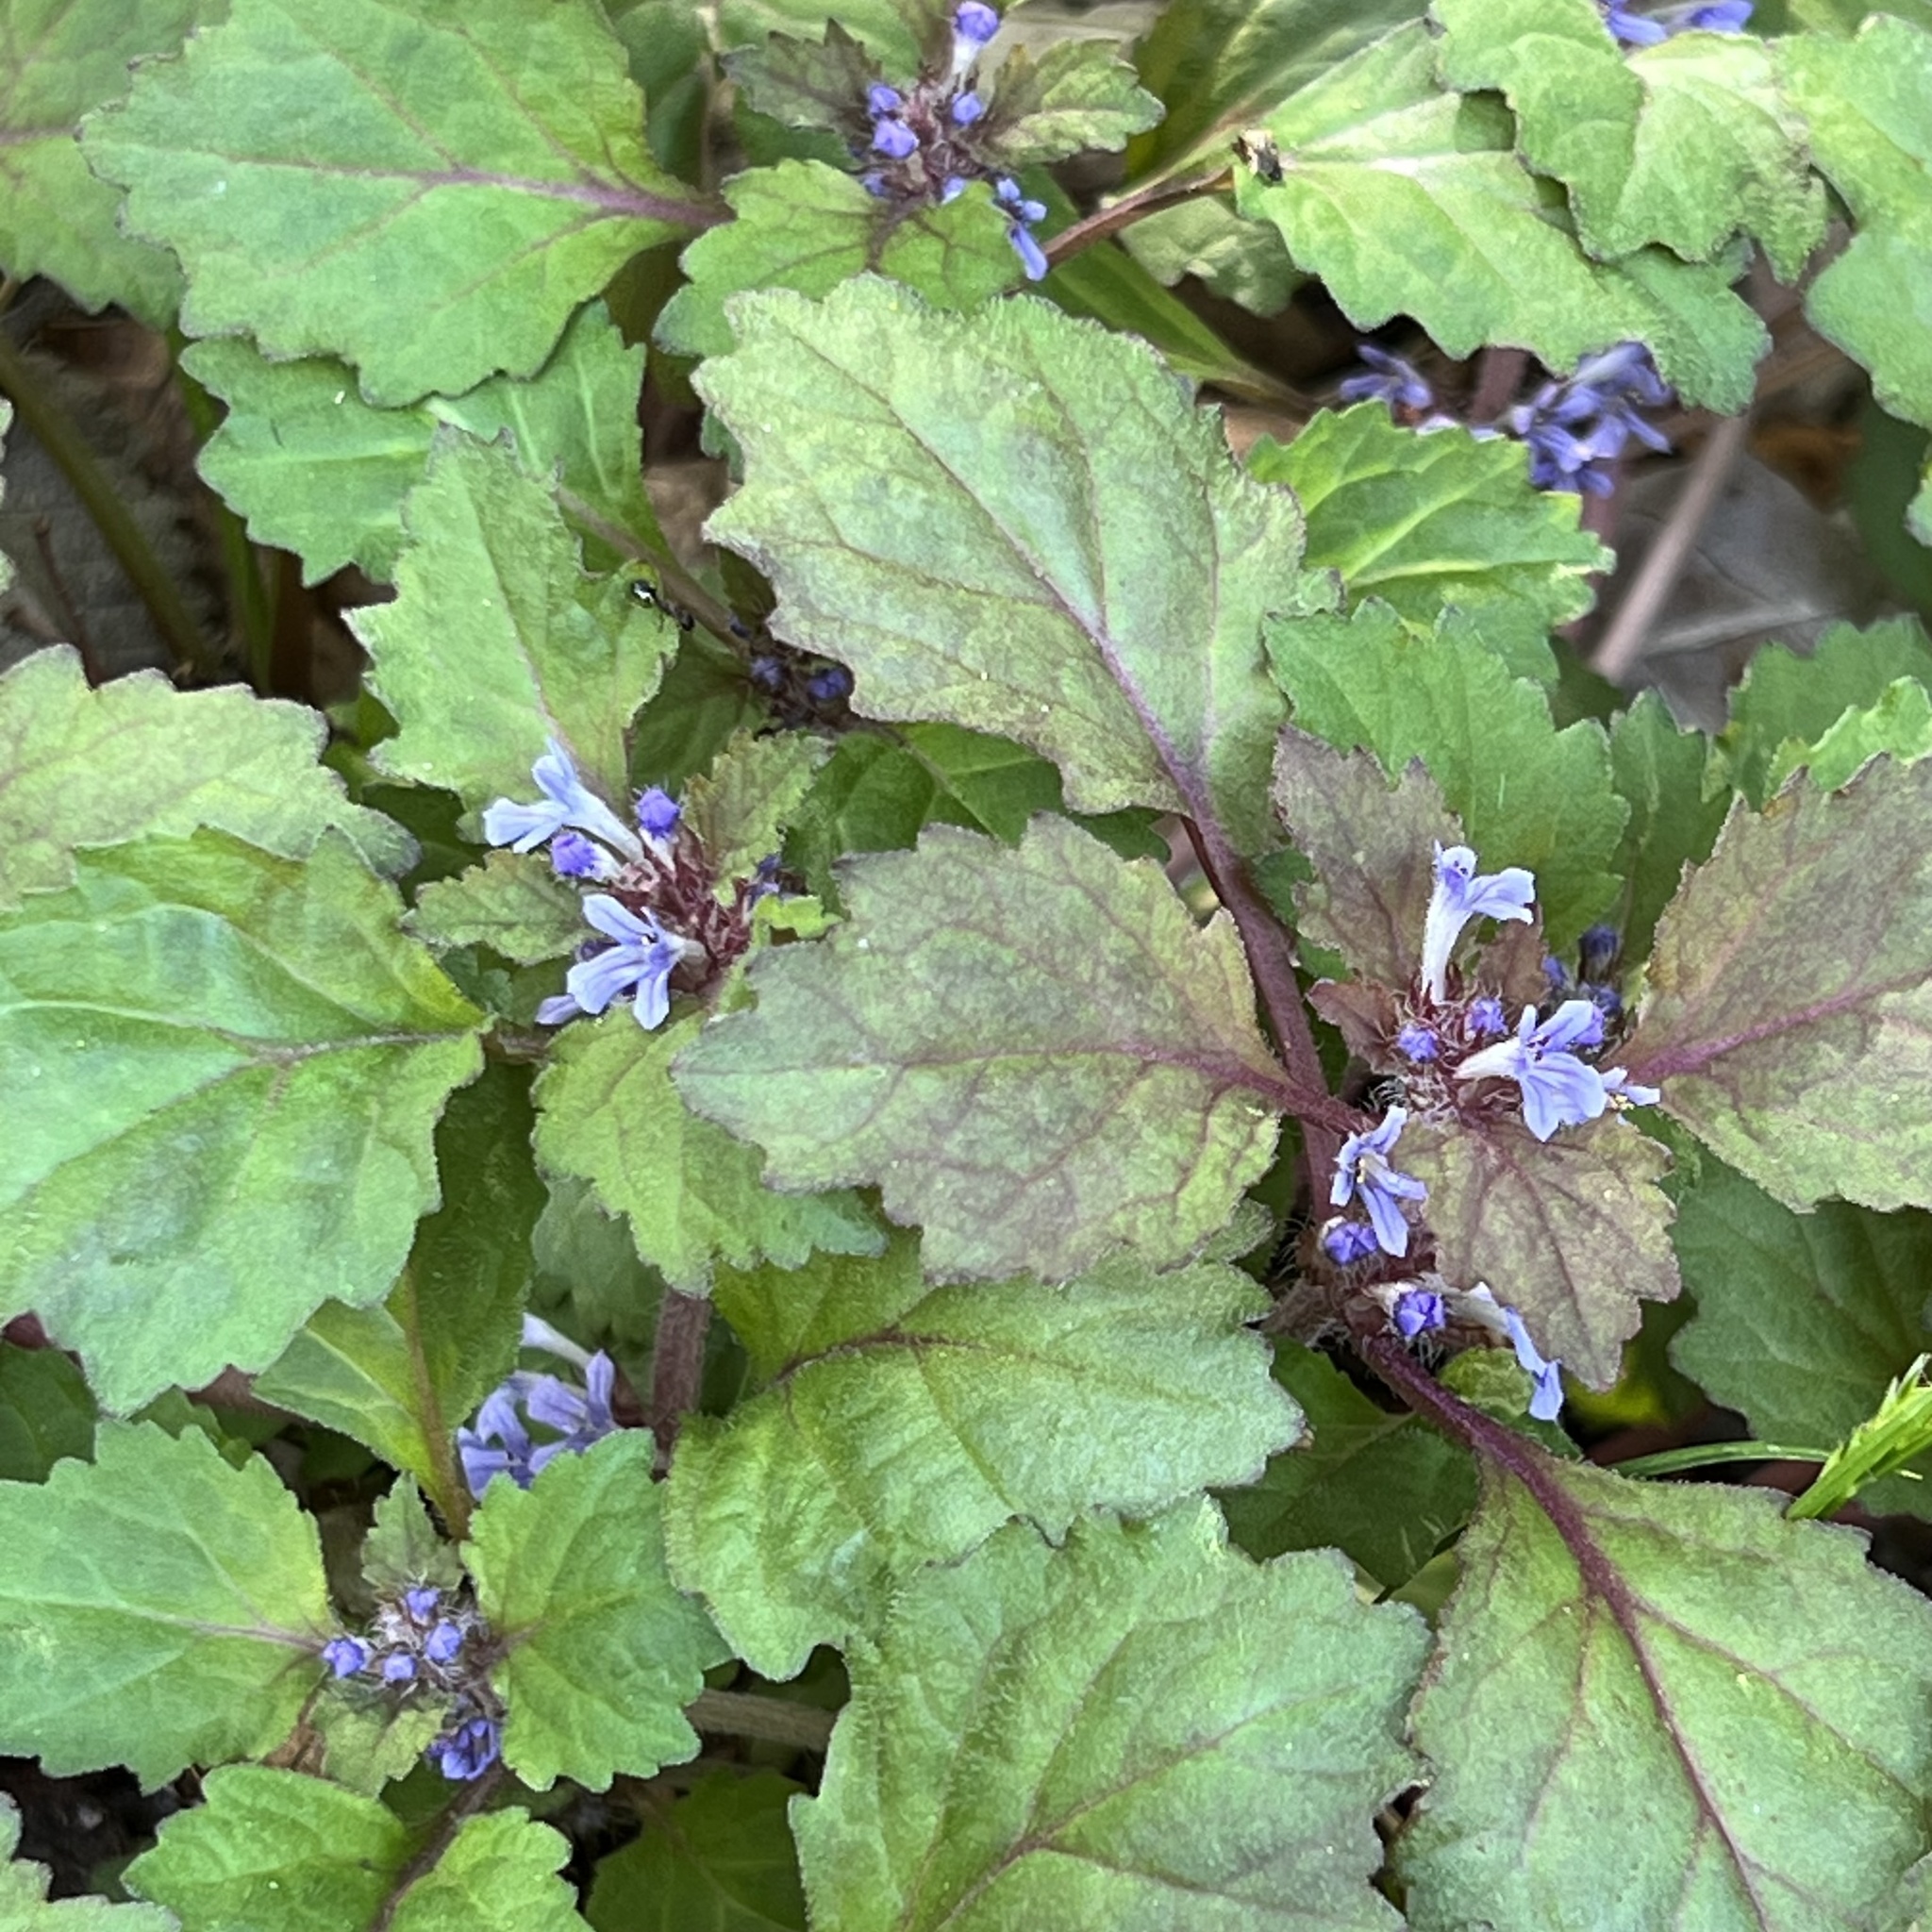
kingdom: Plantae
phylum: Tracheophyta
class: Magnoliopsida
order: Lamiales
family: Lamiaceae
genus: Ajuga
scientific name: Ajuga yesoensis
